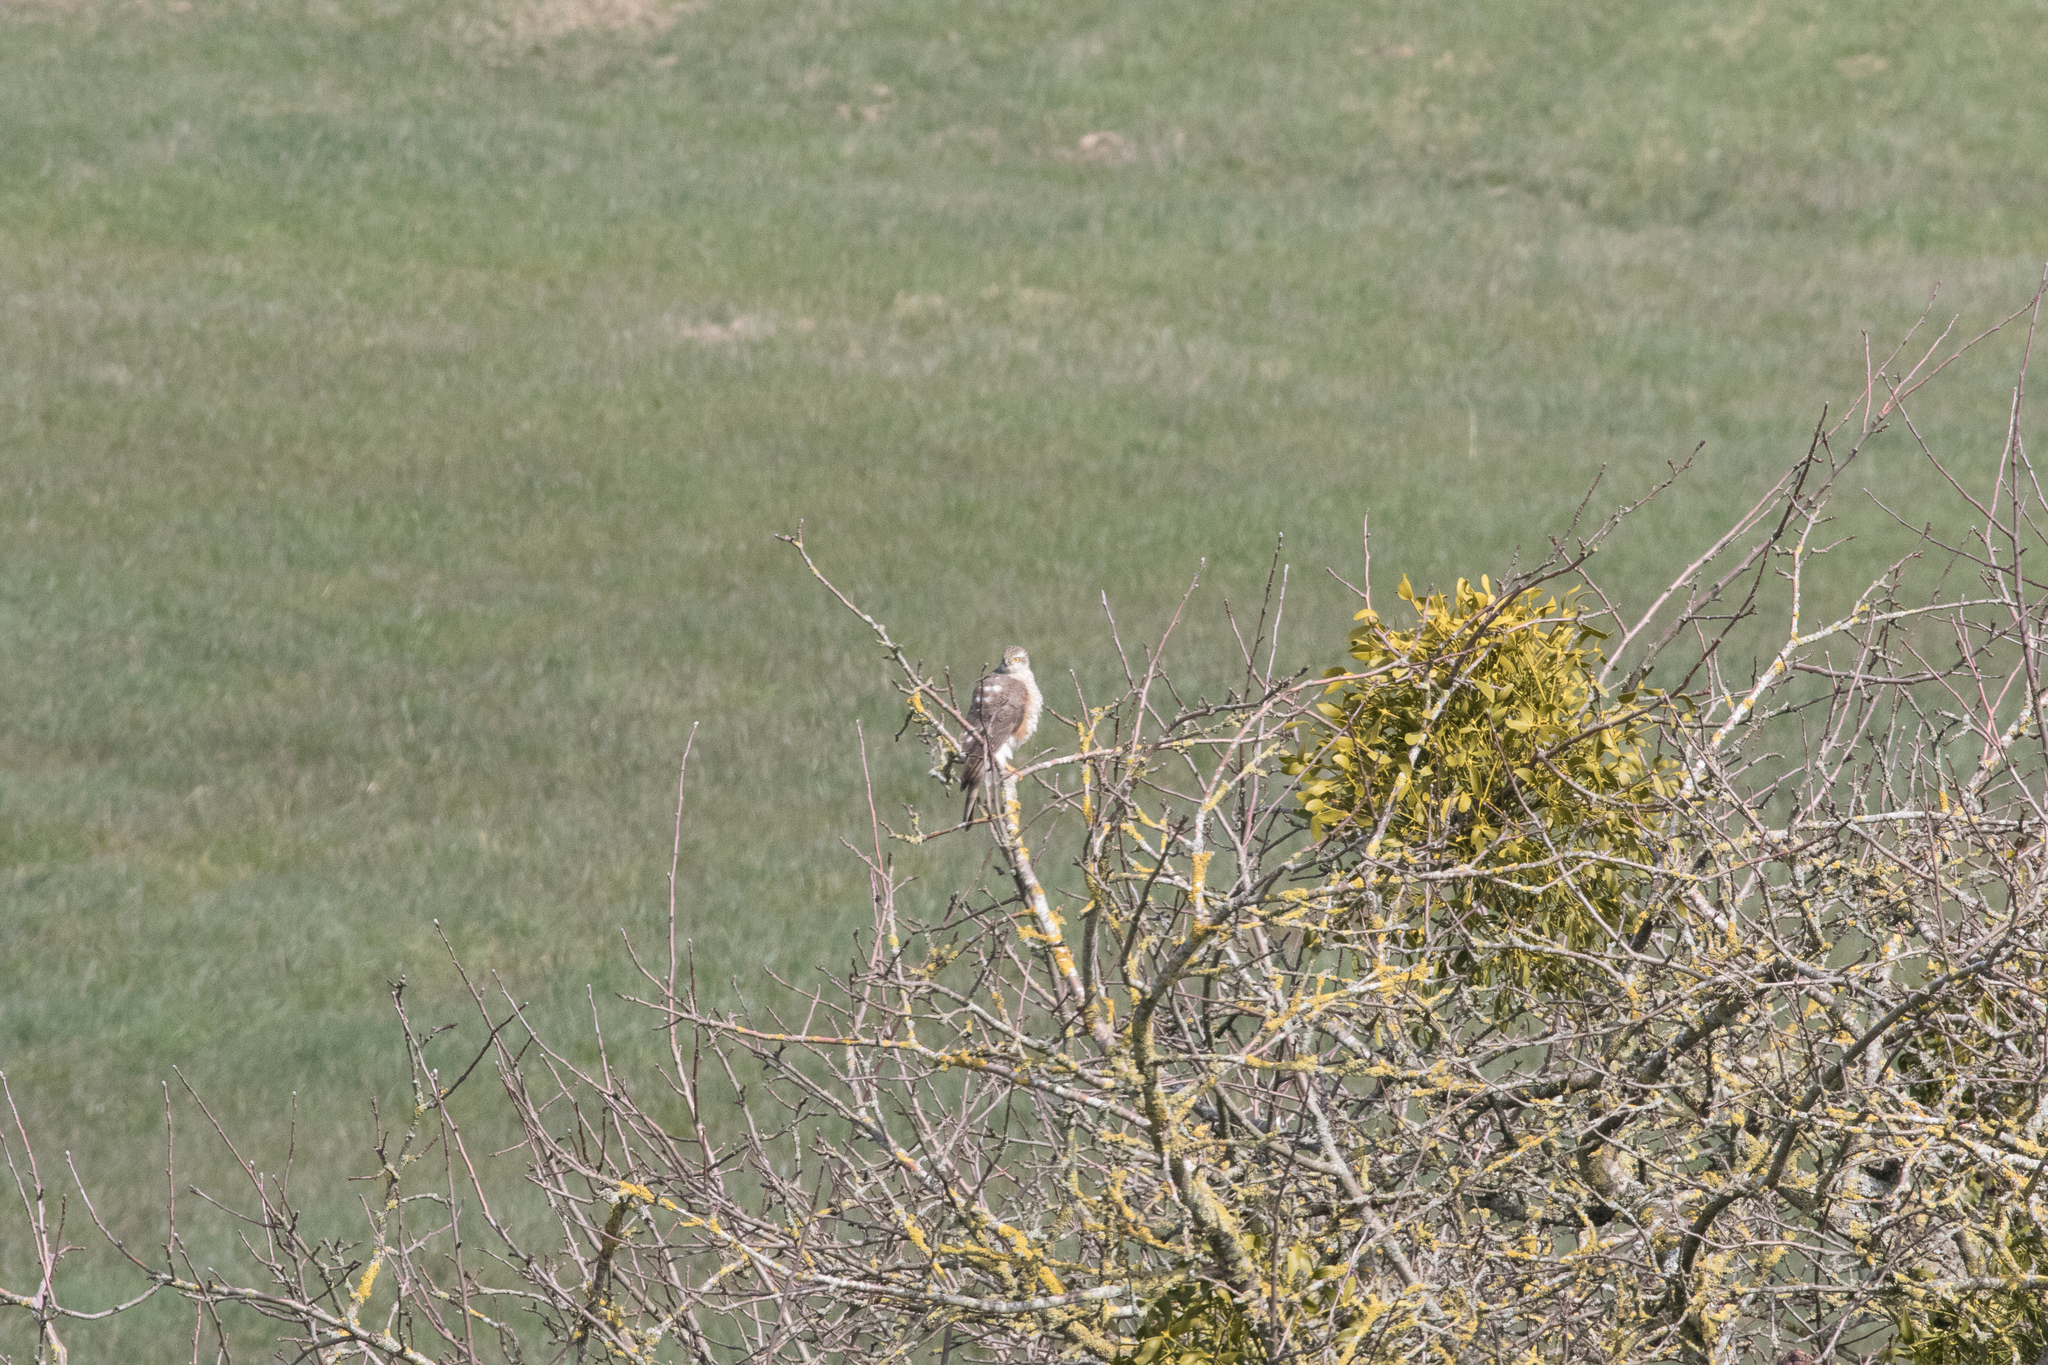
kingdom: Animalia
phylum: Chordata
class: Aves
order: Accipitriformes
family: Accipitridae
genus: Accipiter
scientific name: Accipiter nisus
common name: Eurasian sparrowhawk
